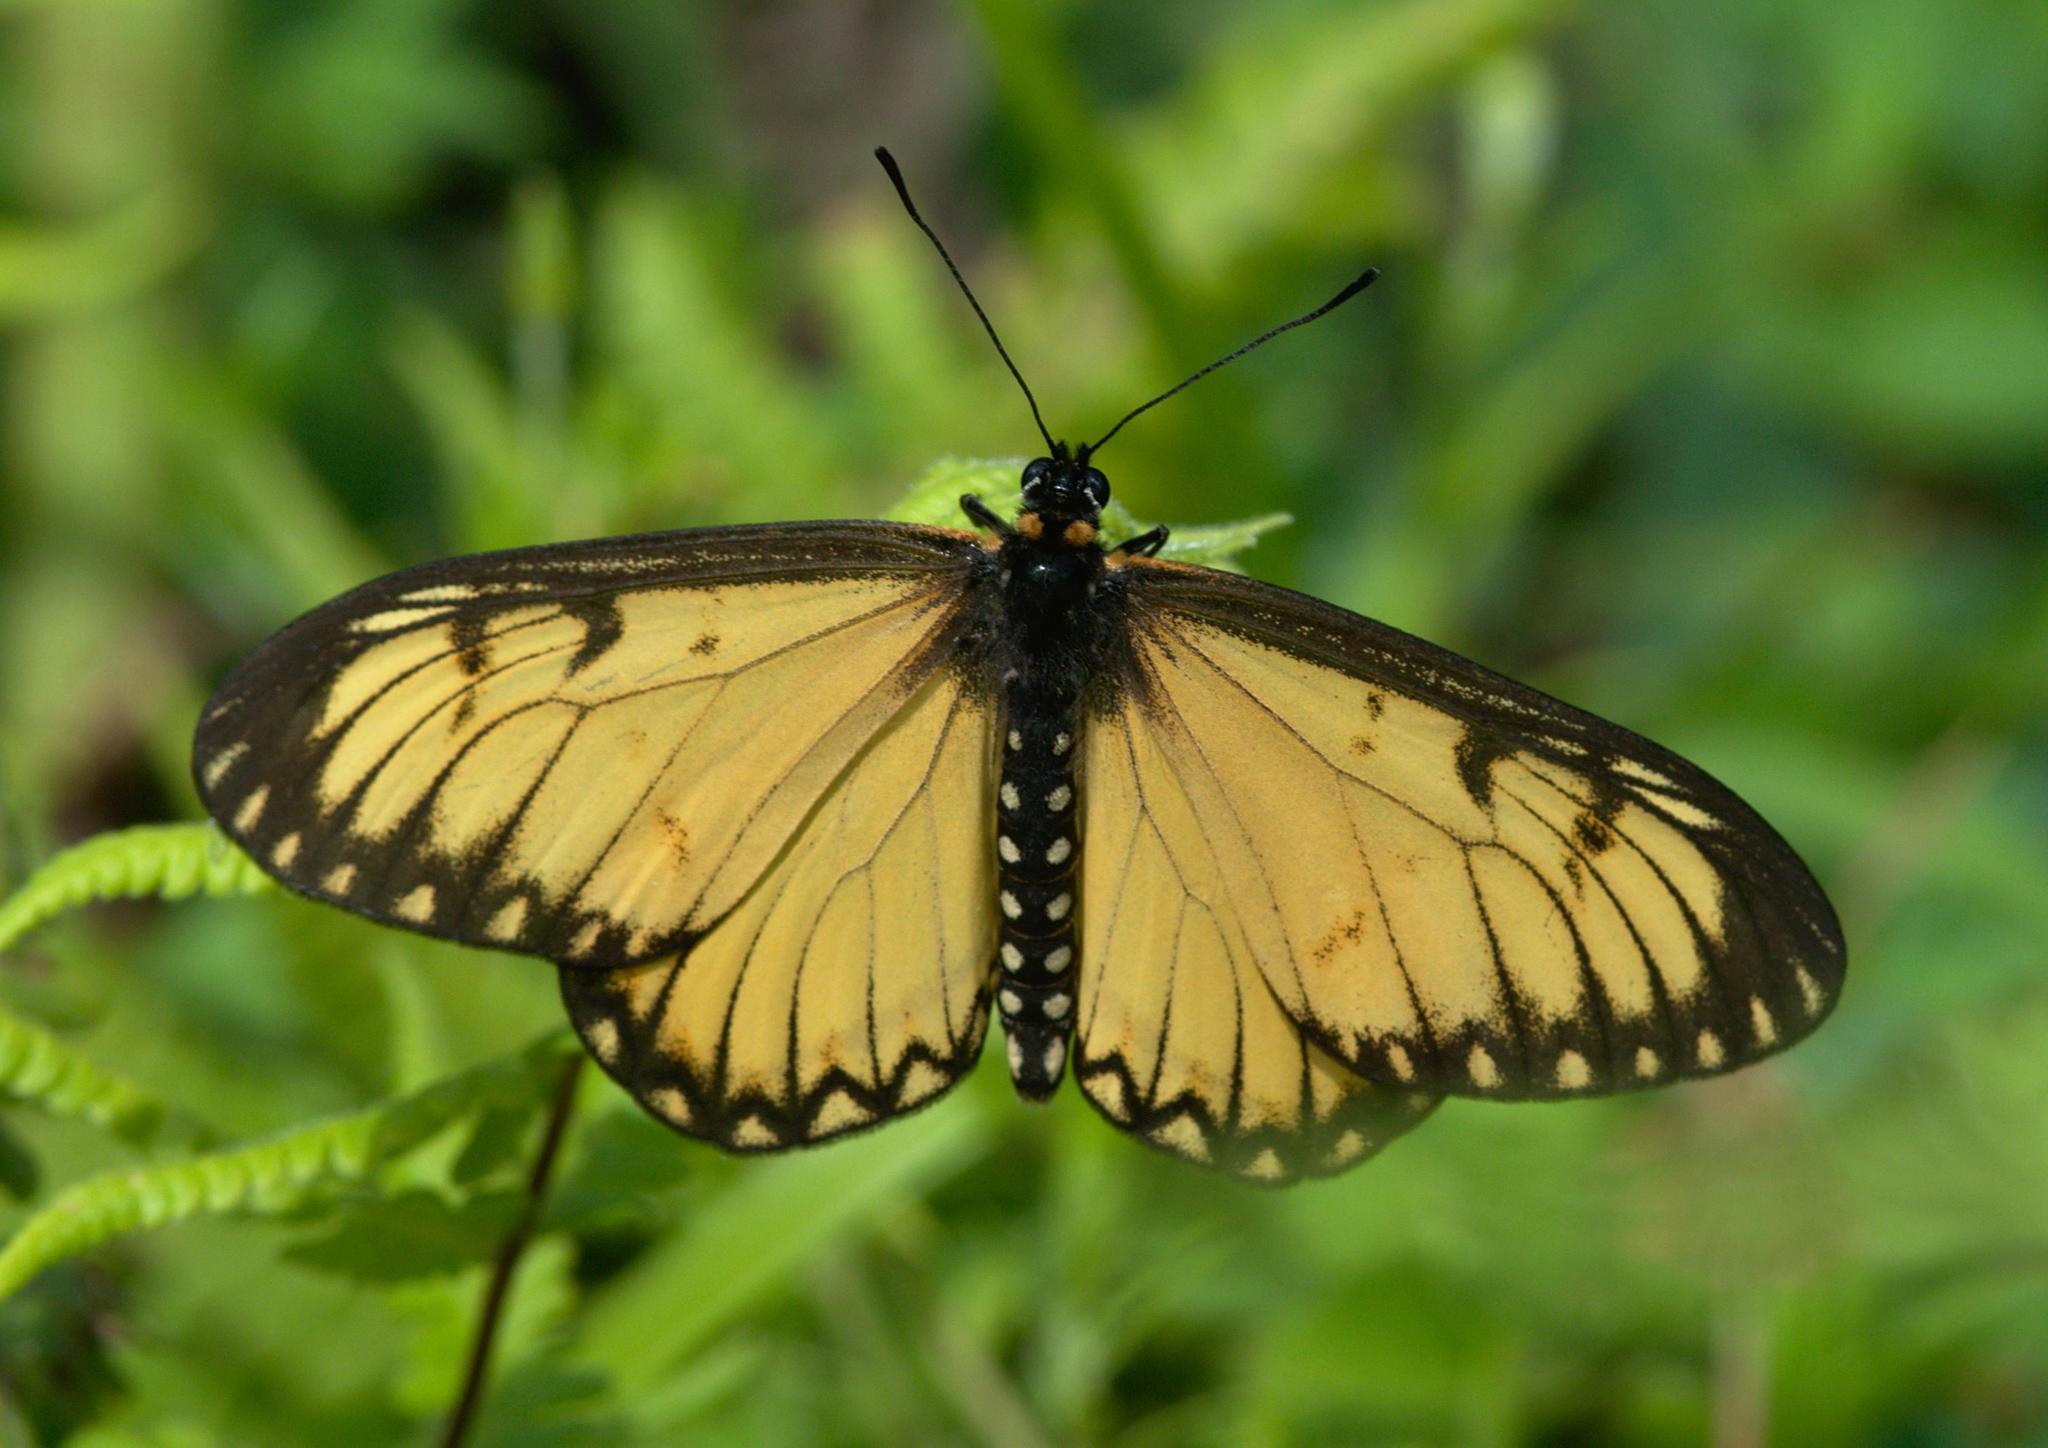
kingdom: Animalia
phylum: Arthropoda
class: Insecta
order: Lepidoptera
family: Nymphalidae
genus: Acraea
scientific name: Acraea Telchinia issoria
